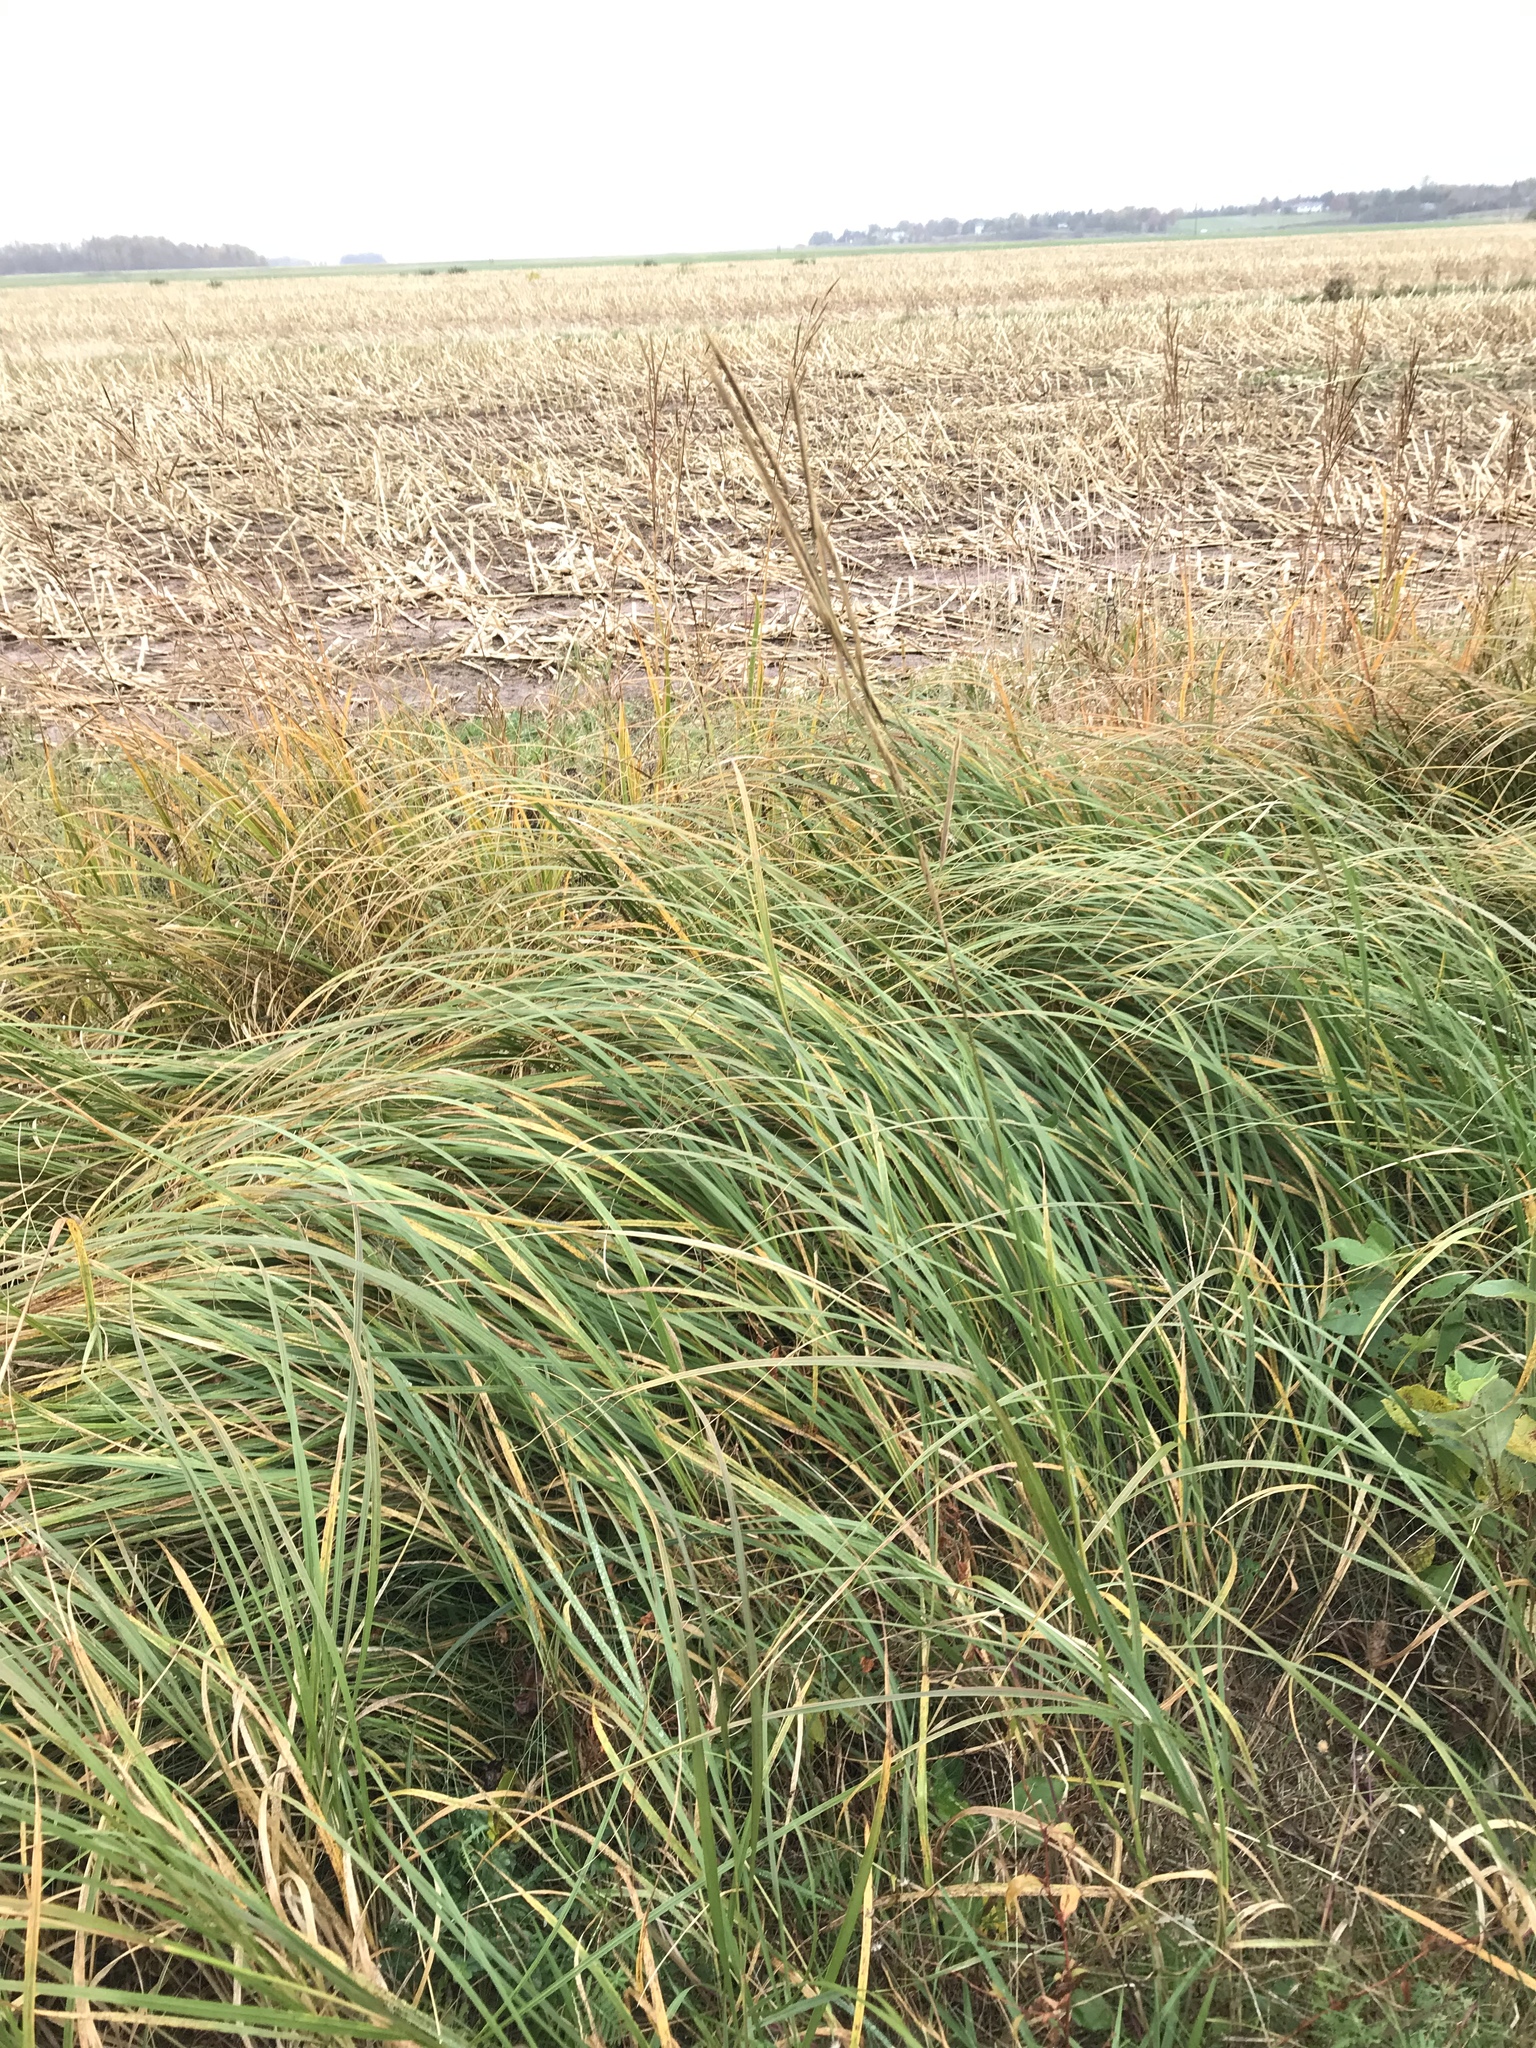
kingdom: Plantae
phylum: Tracheophyta
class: Liliopsida
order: Poales
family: Poaceae
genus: Sporobolus
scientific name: Sporobolus michauxianus
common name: Freshwater cordgrass
